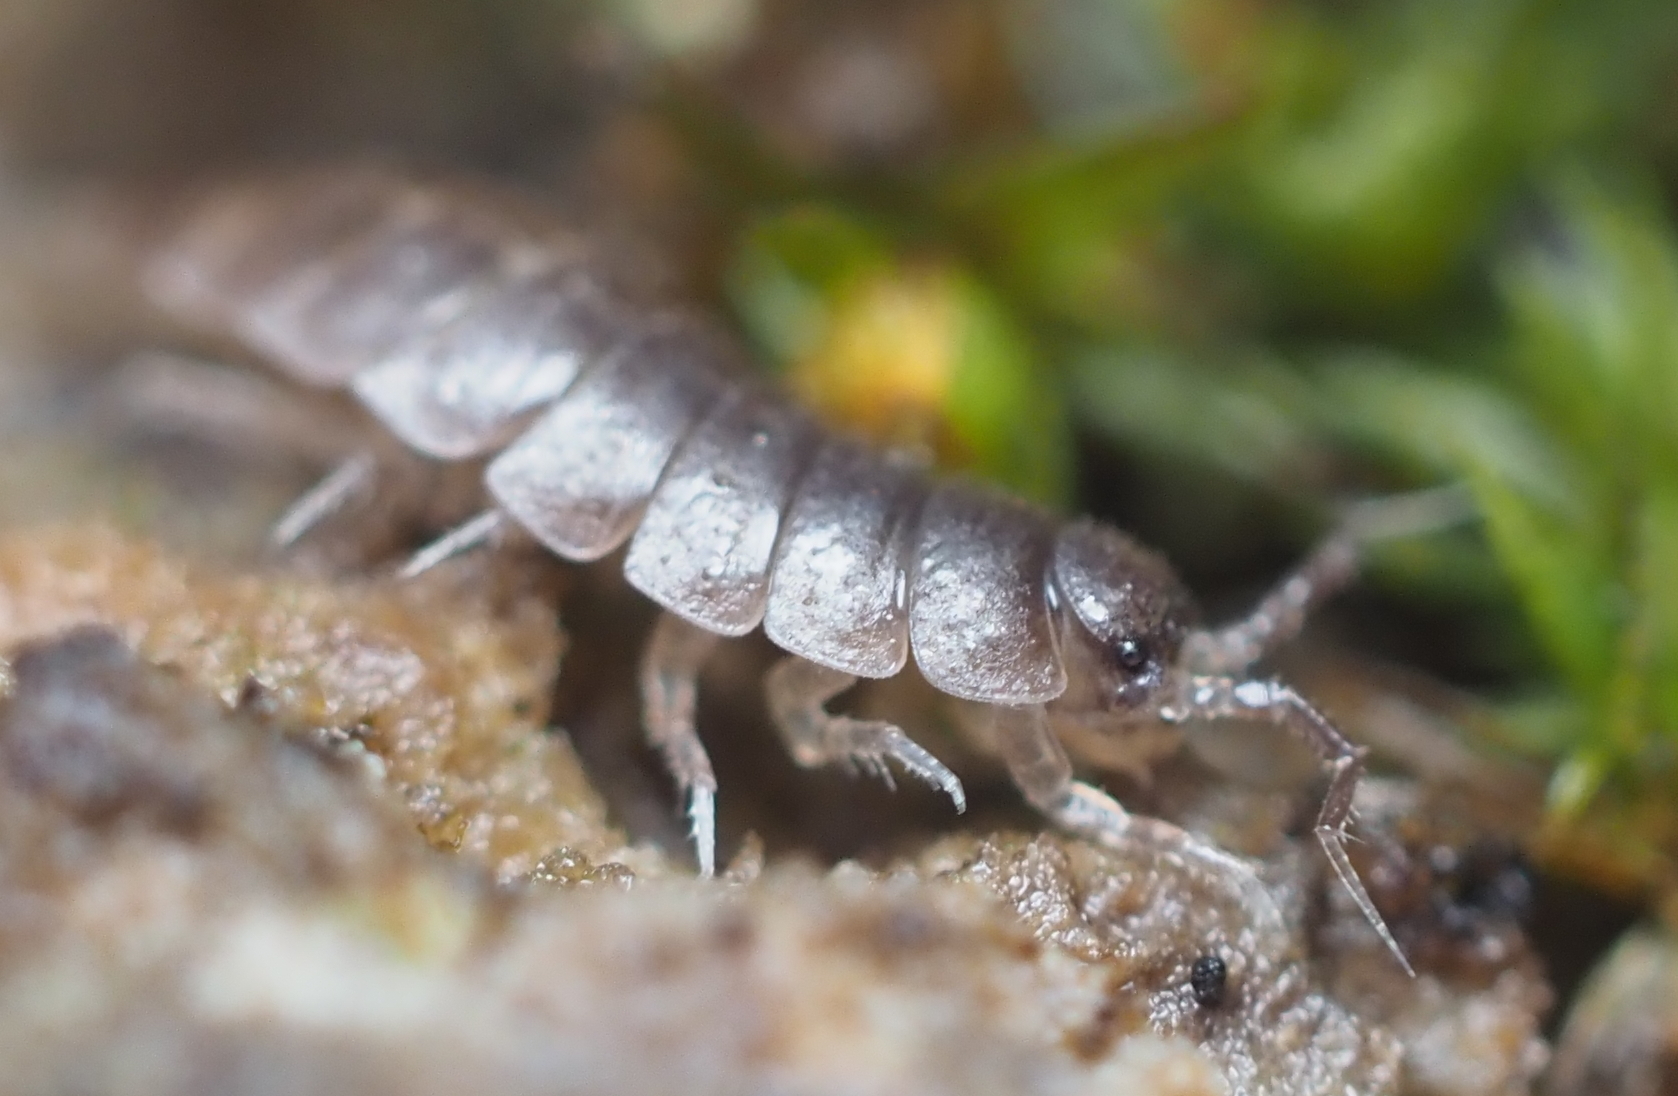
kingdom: Animalia
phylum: Arthropoda
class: Malacostraca
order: Isopoda
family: Trichoniscidae
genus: Hyloniscus
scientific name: Hyloniscus riparius
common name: Isopod
